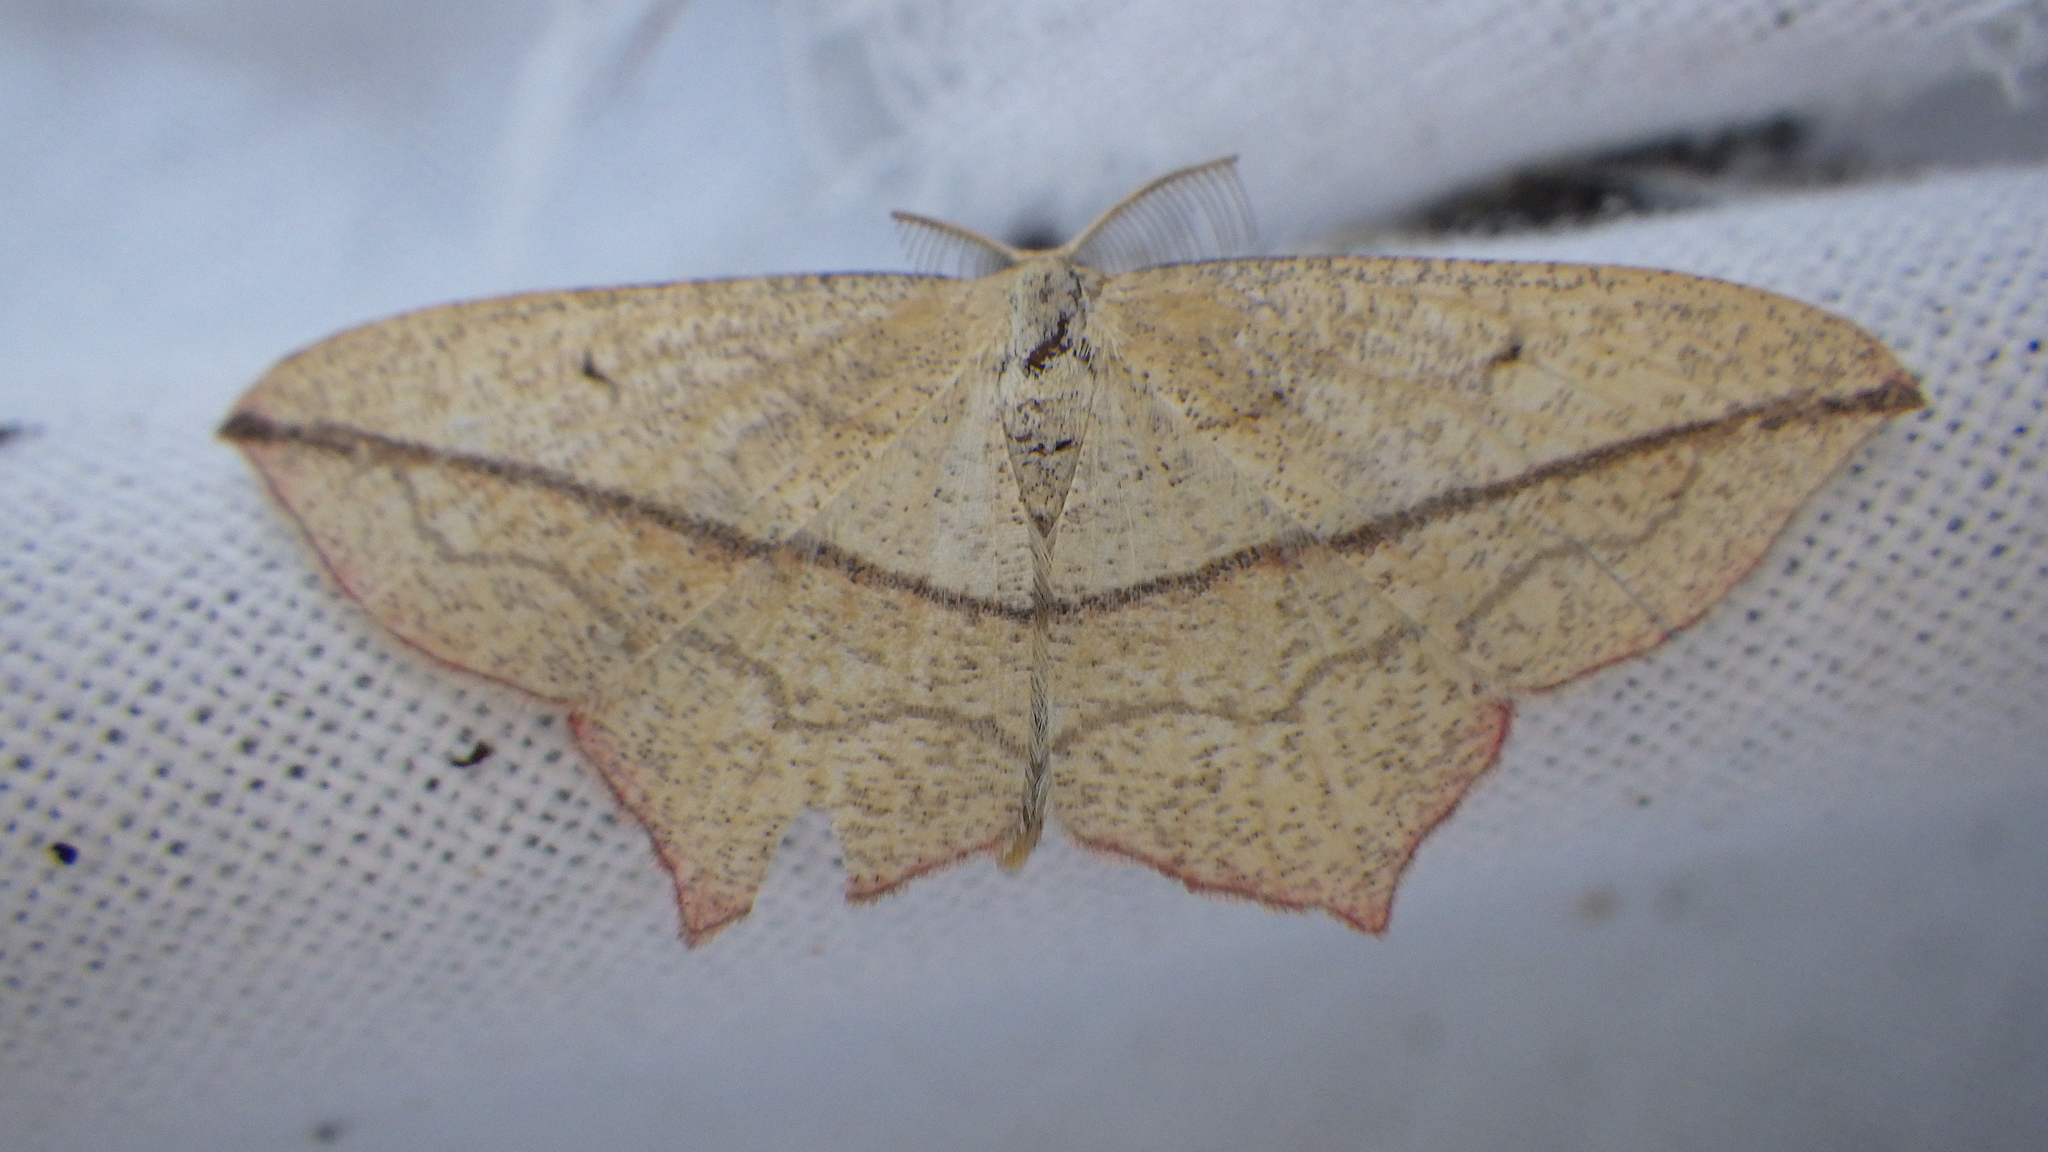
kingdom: Animalia
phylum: Arthropoda
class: Insecta
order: Lepidoptera
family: Geometridae
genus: Timandra
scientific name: Timandra comae
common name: Blood-vein
